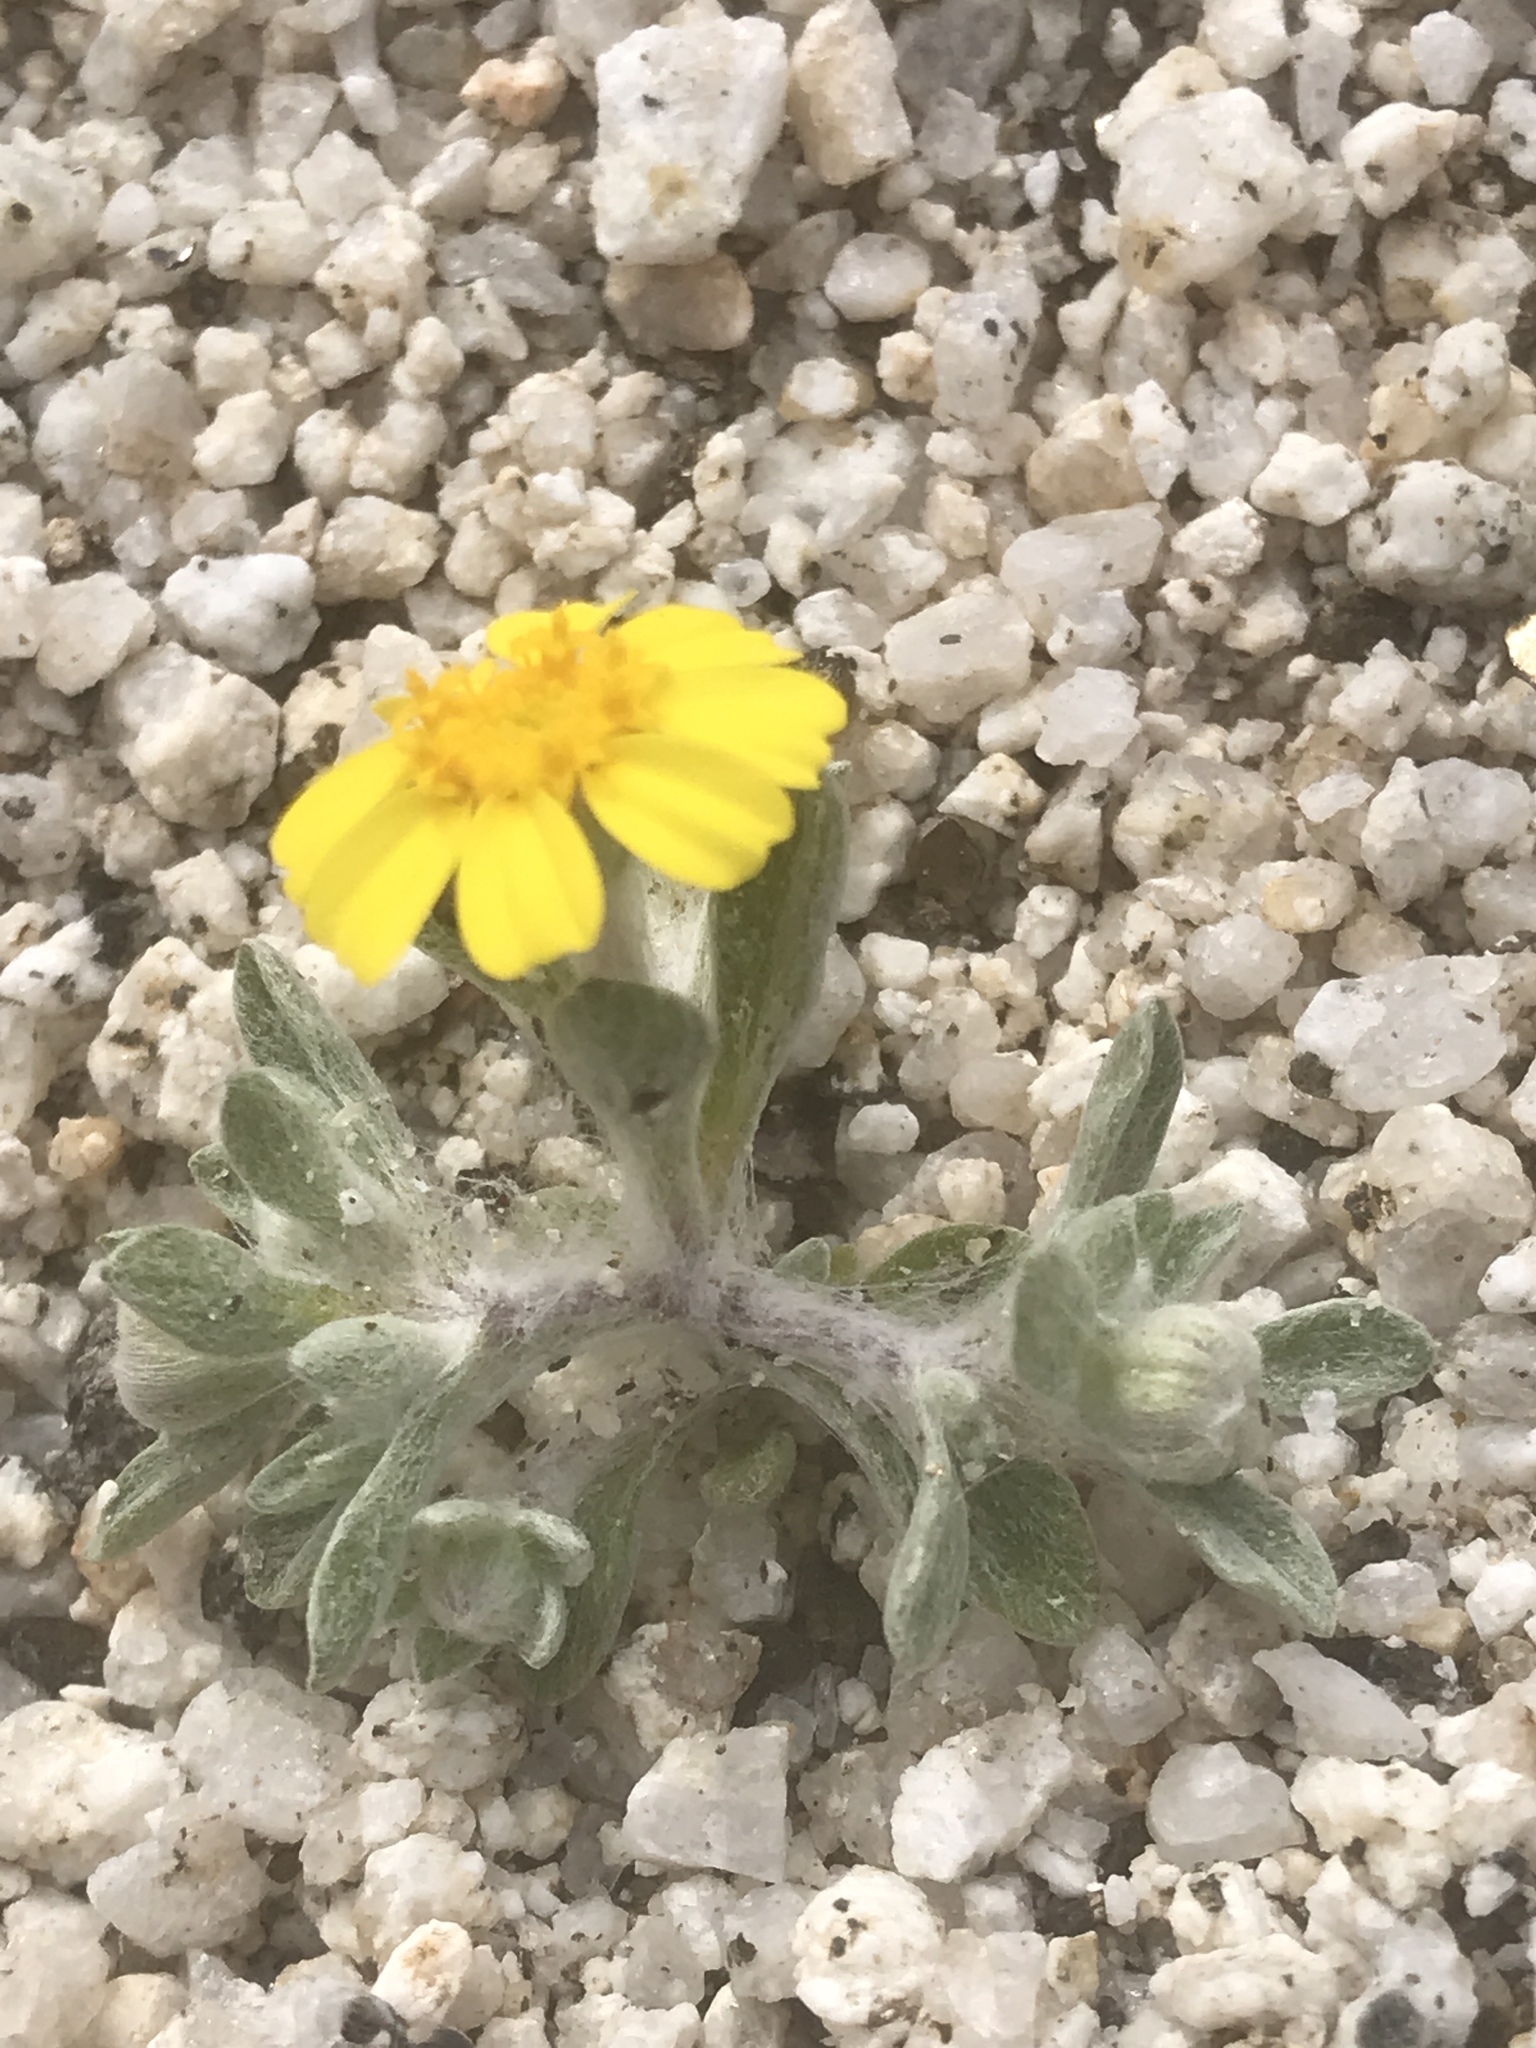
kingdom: Plantae
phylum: Tracheophyta
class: Magnoliopsida
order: Asterales
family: Asteraceae
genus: Eriophyllum
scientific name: Eriophyllum wallacei
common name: Wallace's woolly daisy
